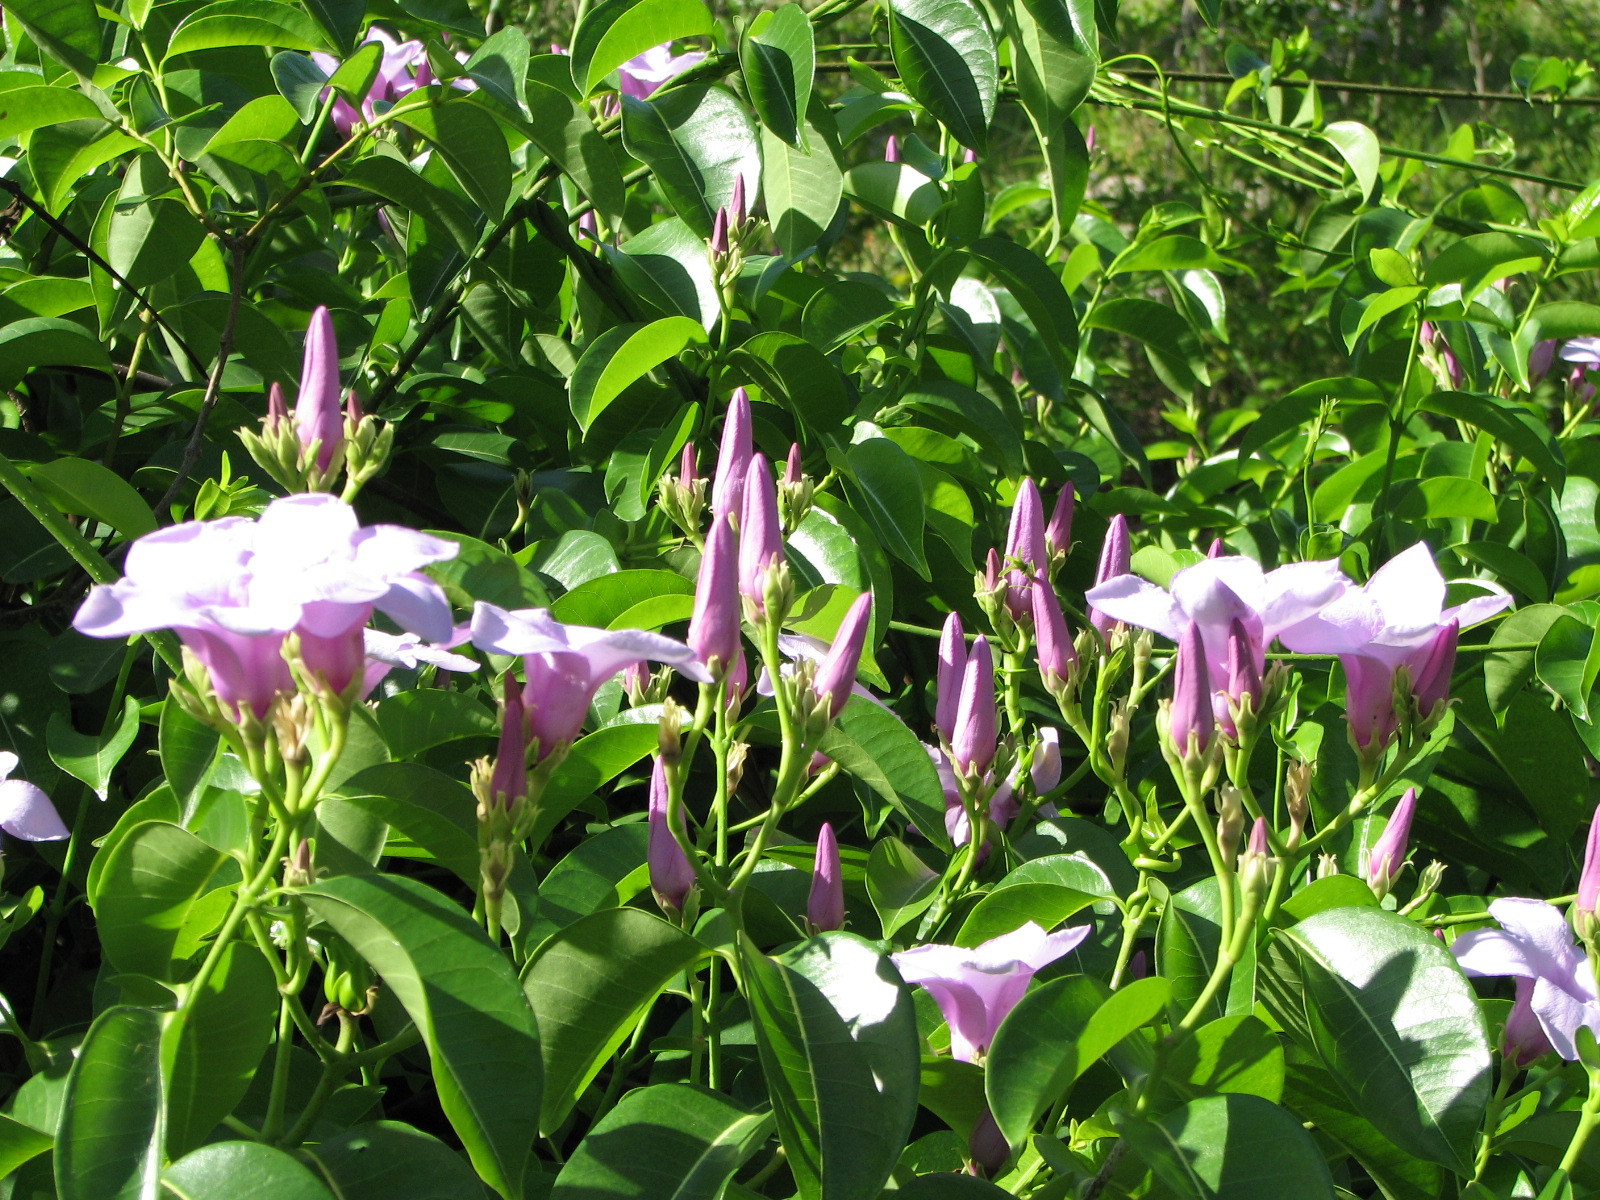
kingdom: Plantae
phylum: Tracheophyta
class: Magnoliopsida
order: Gentianales
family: Apocynaceae
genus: Cryptostegia
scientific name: Cryptostegia grandiflora
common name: Palay rubbervine
